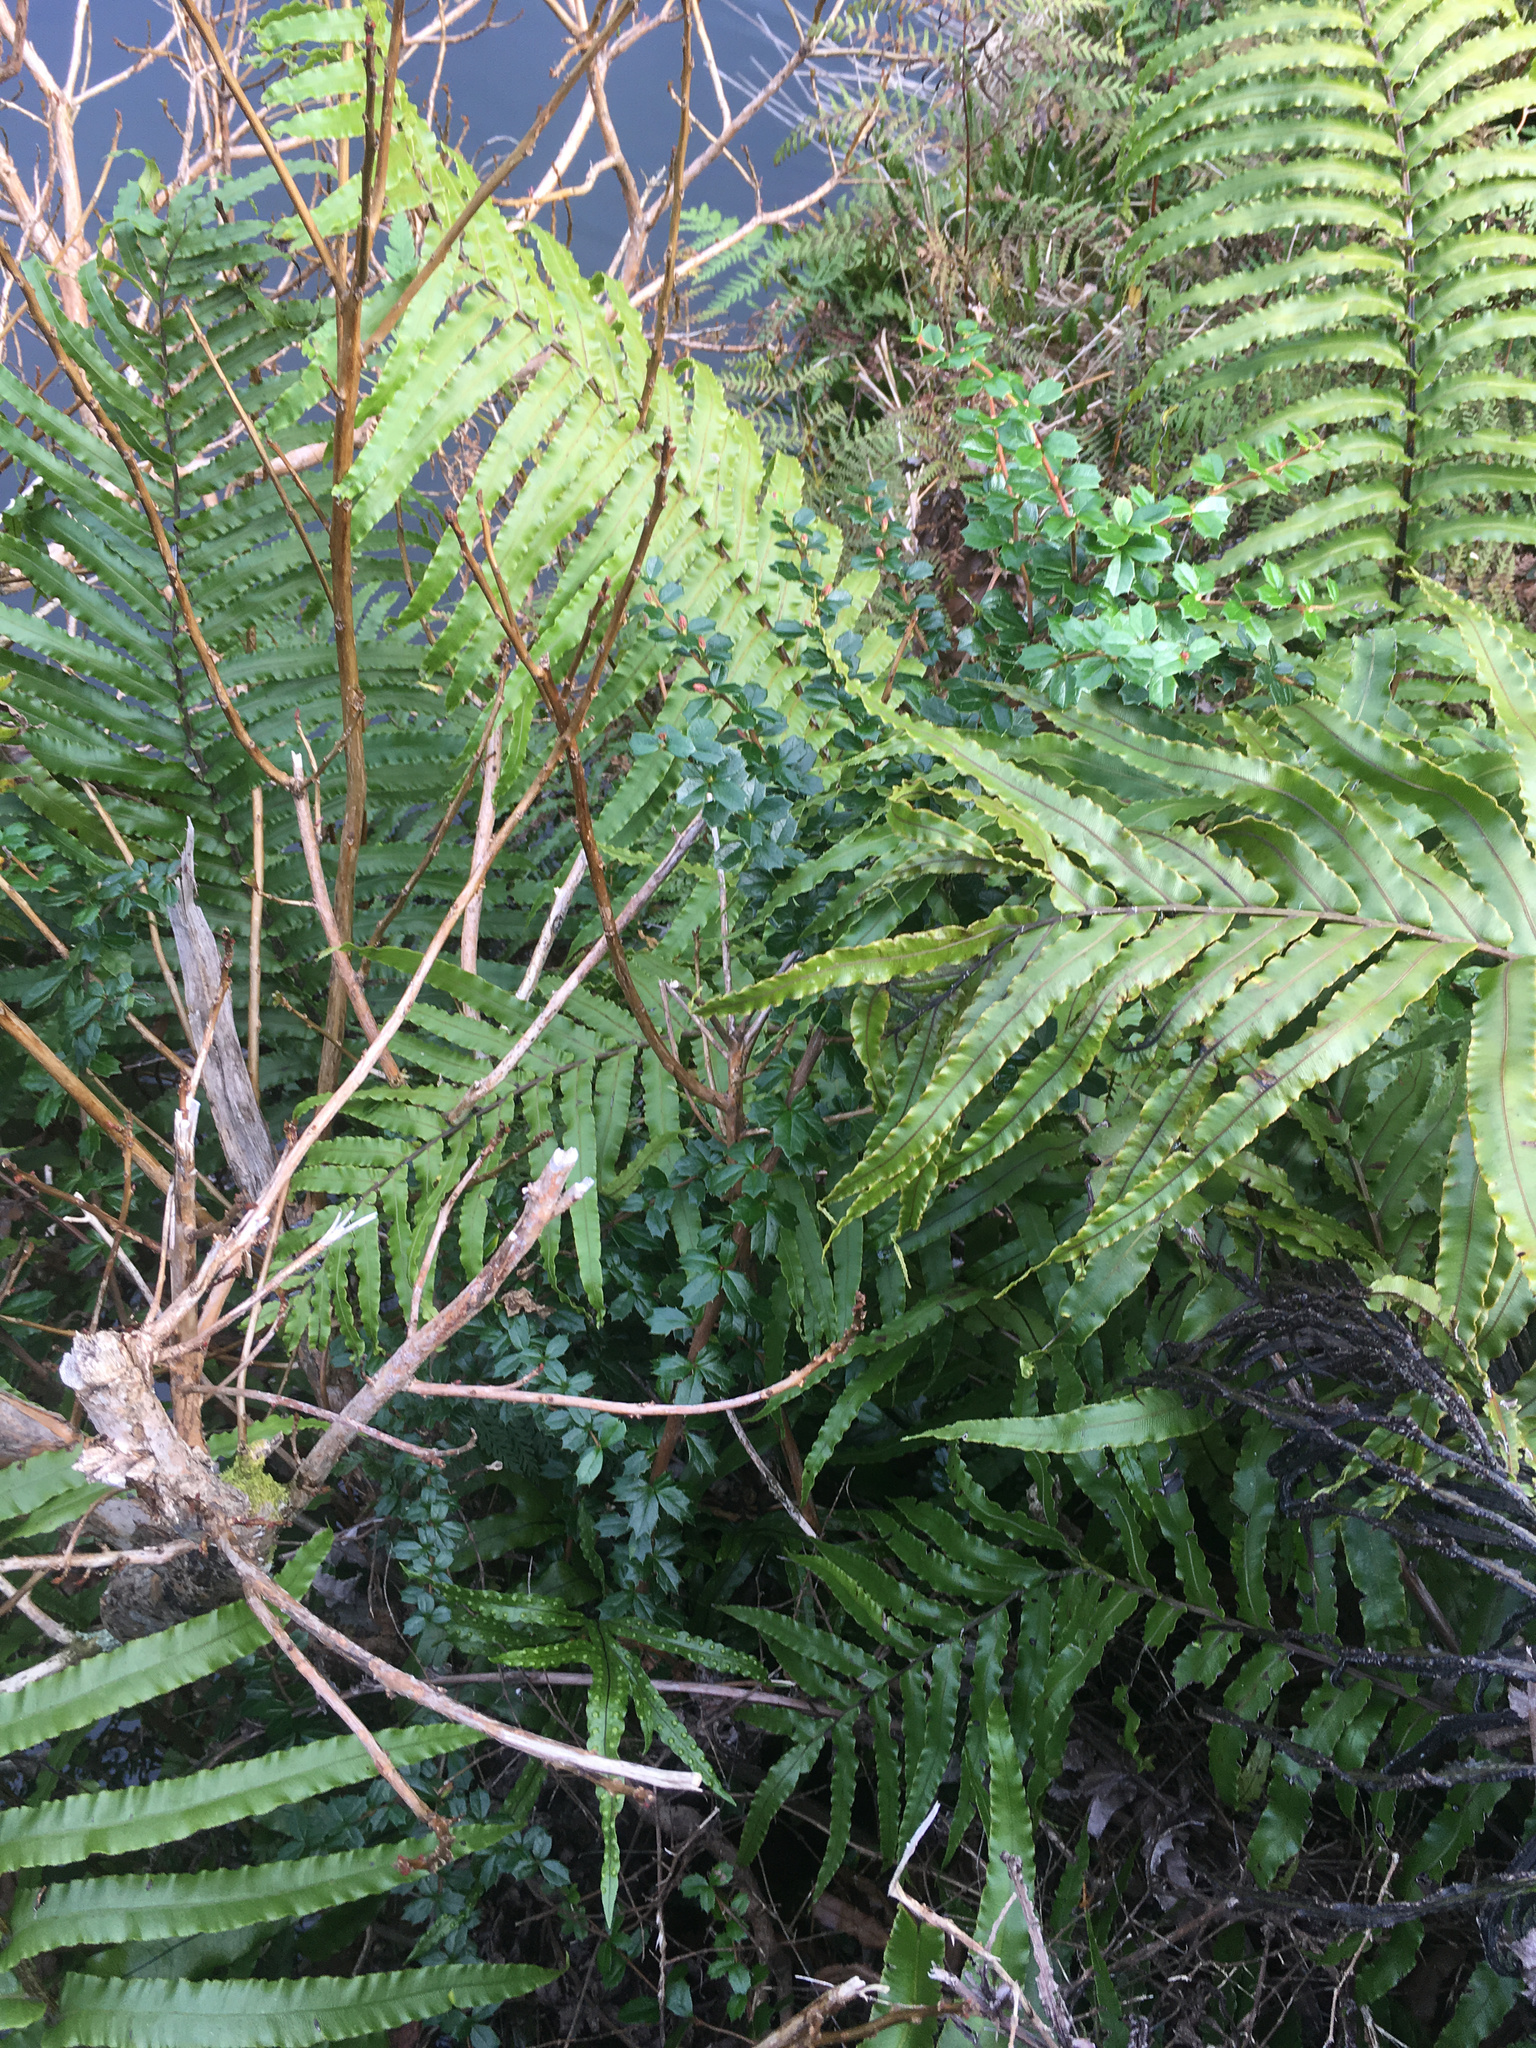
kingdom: Plantae
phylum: Tracheophyta
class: Magnoliopsida
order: Ranunculales
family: Berberidaceae
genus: Berberis
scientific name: Berberis darwinii
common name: Darwin's barberry
